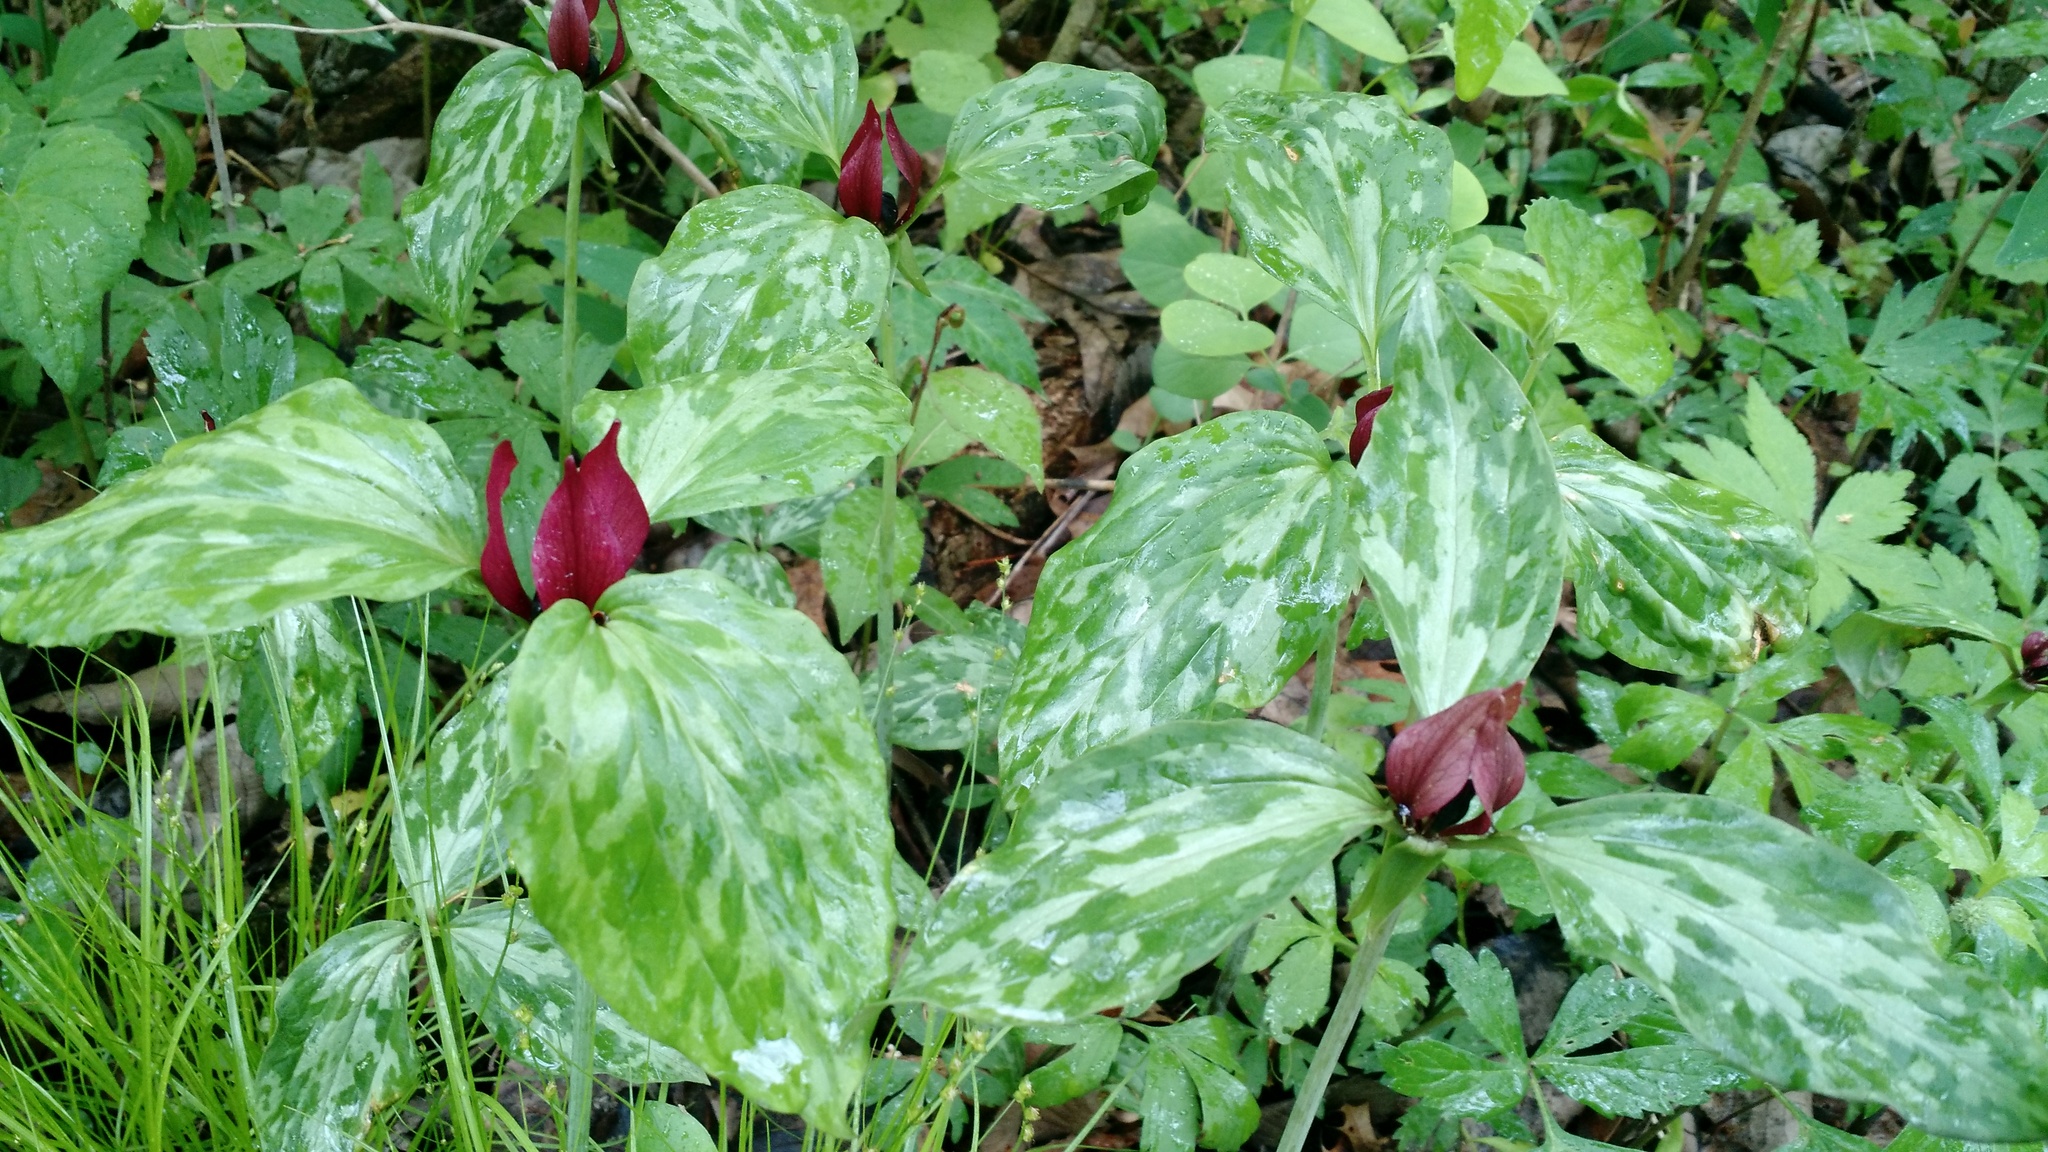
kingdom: Plantae
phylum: Tracheophyta
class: Liliopsida
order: Liliales
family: Melanthiaceae
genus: Trillium
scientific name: Trillium recurvatum
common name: Bloody butcher
